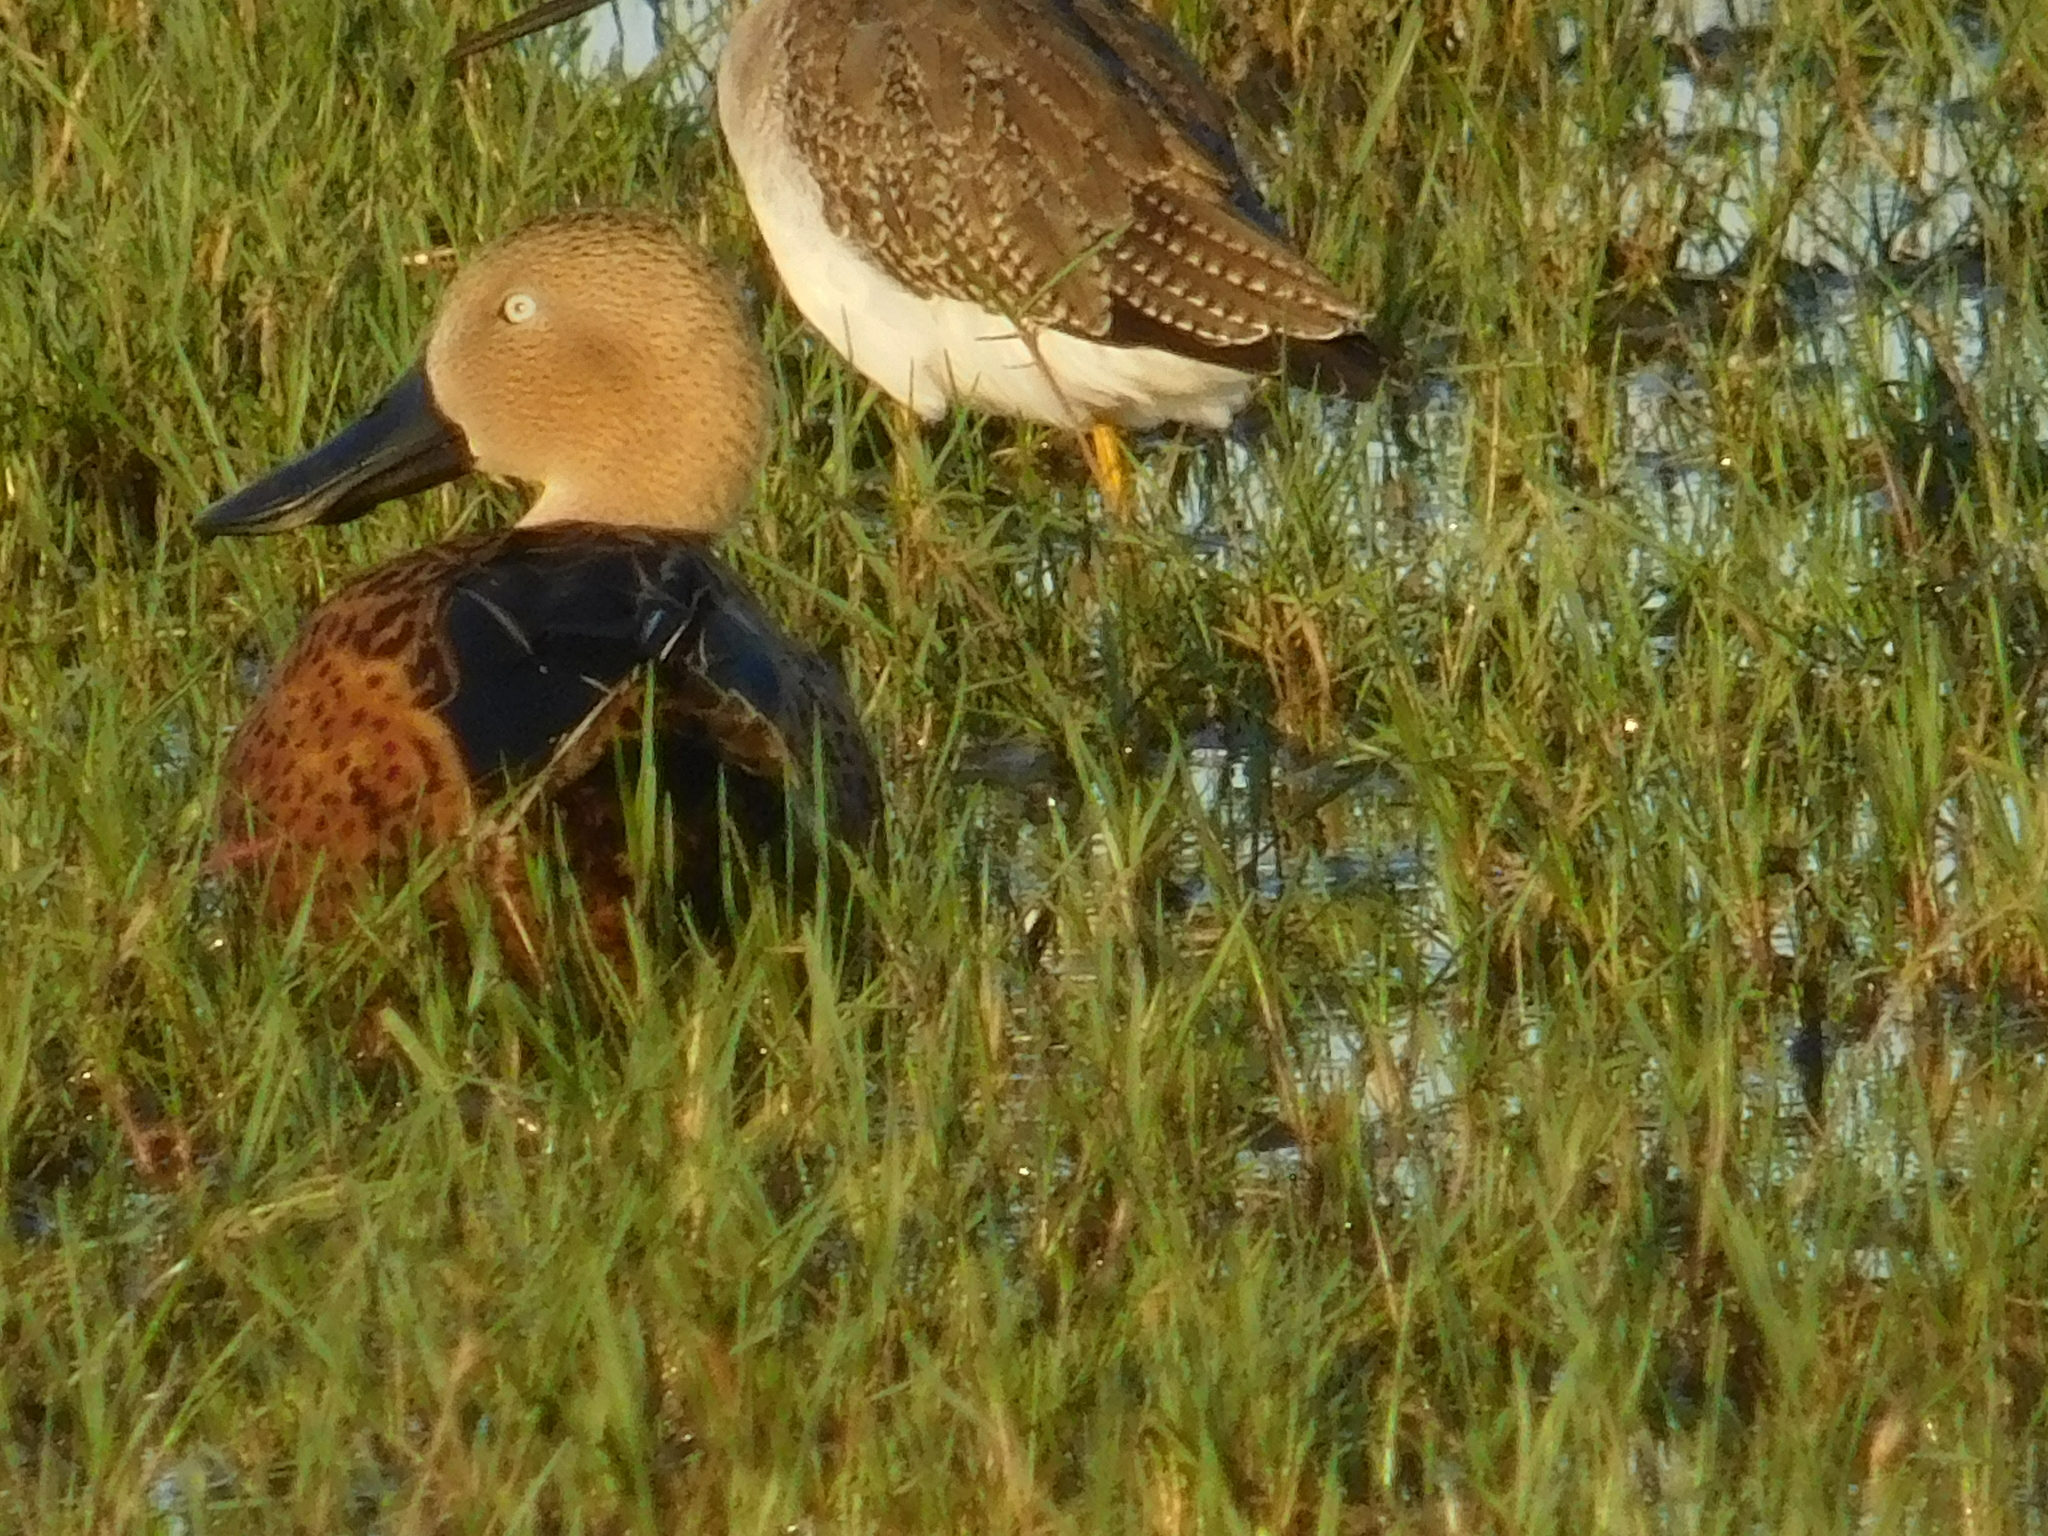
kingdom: Animalia
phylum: Chordata
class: Aves
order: Anseriformes
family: Anatidae
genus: Spatula
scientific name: Spatula platalea
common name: Red shoveler
